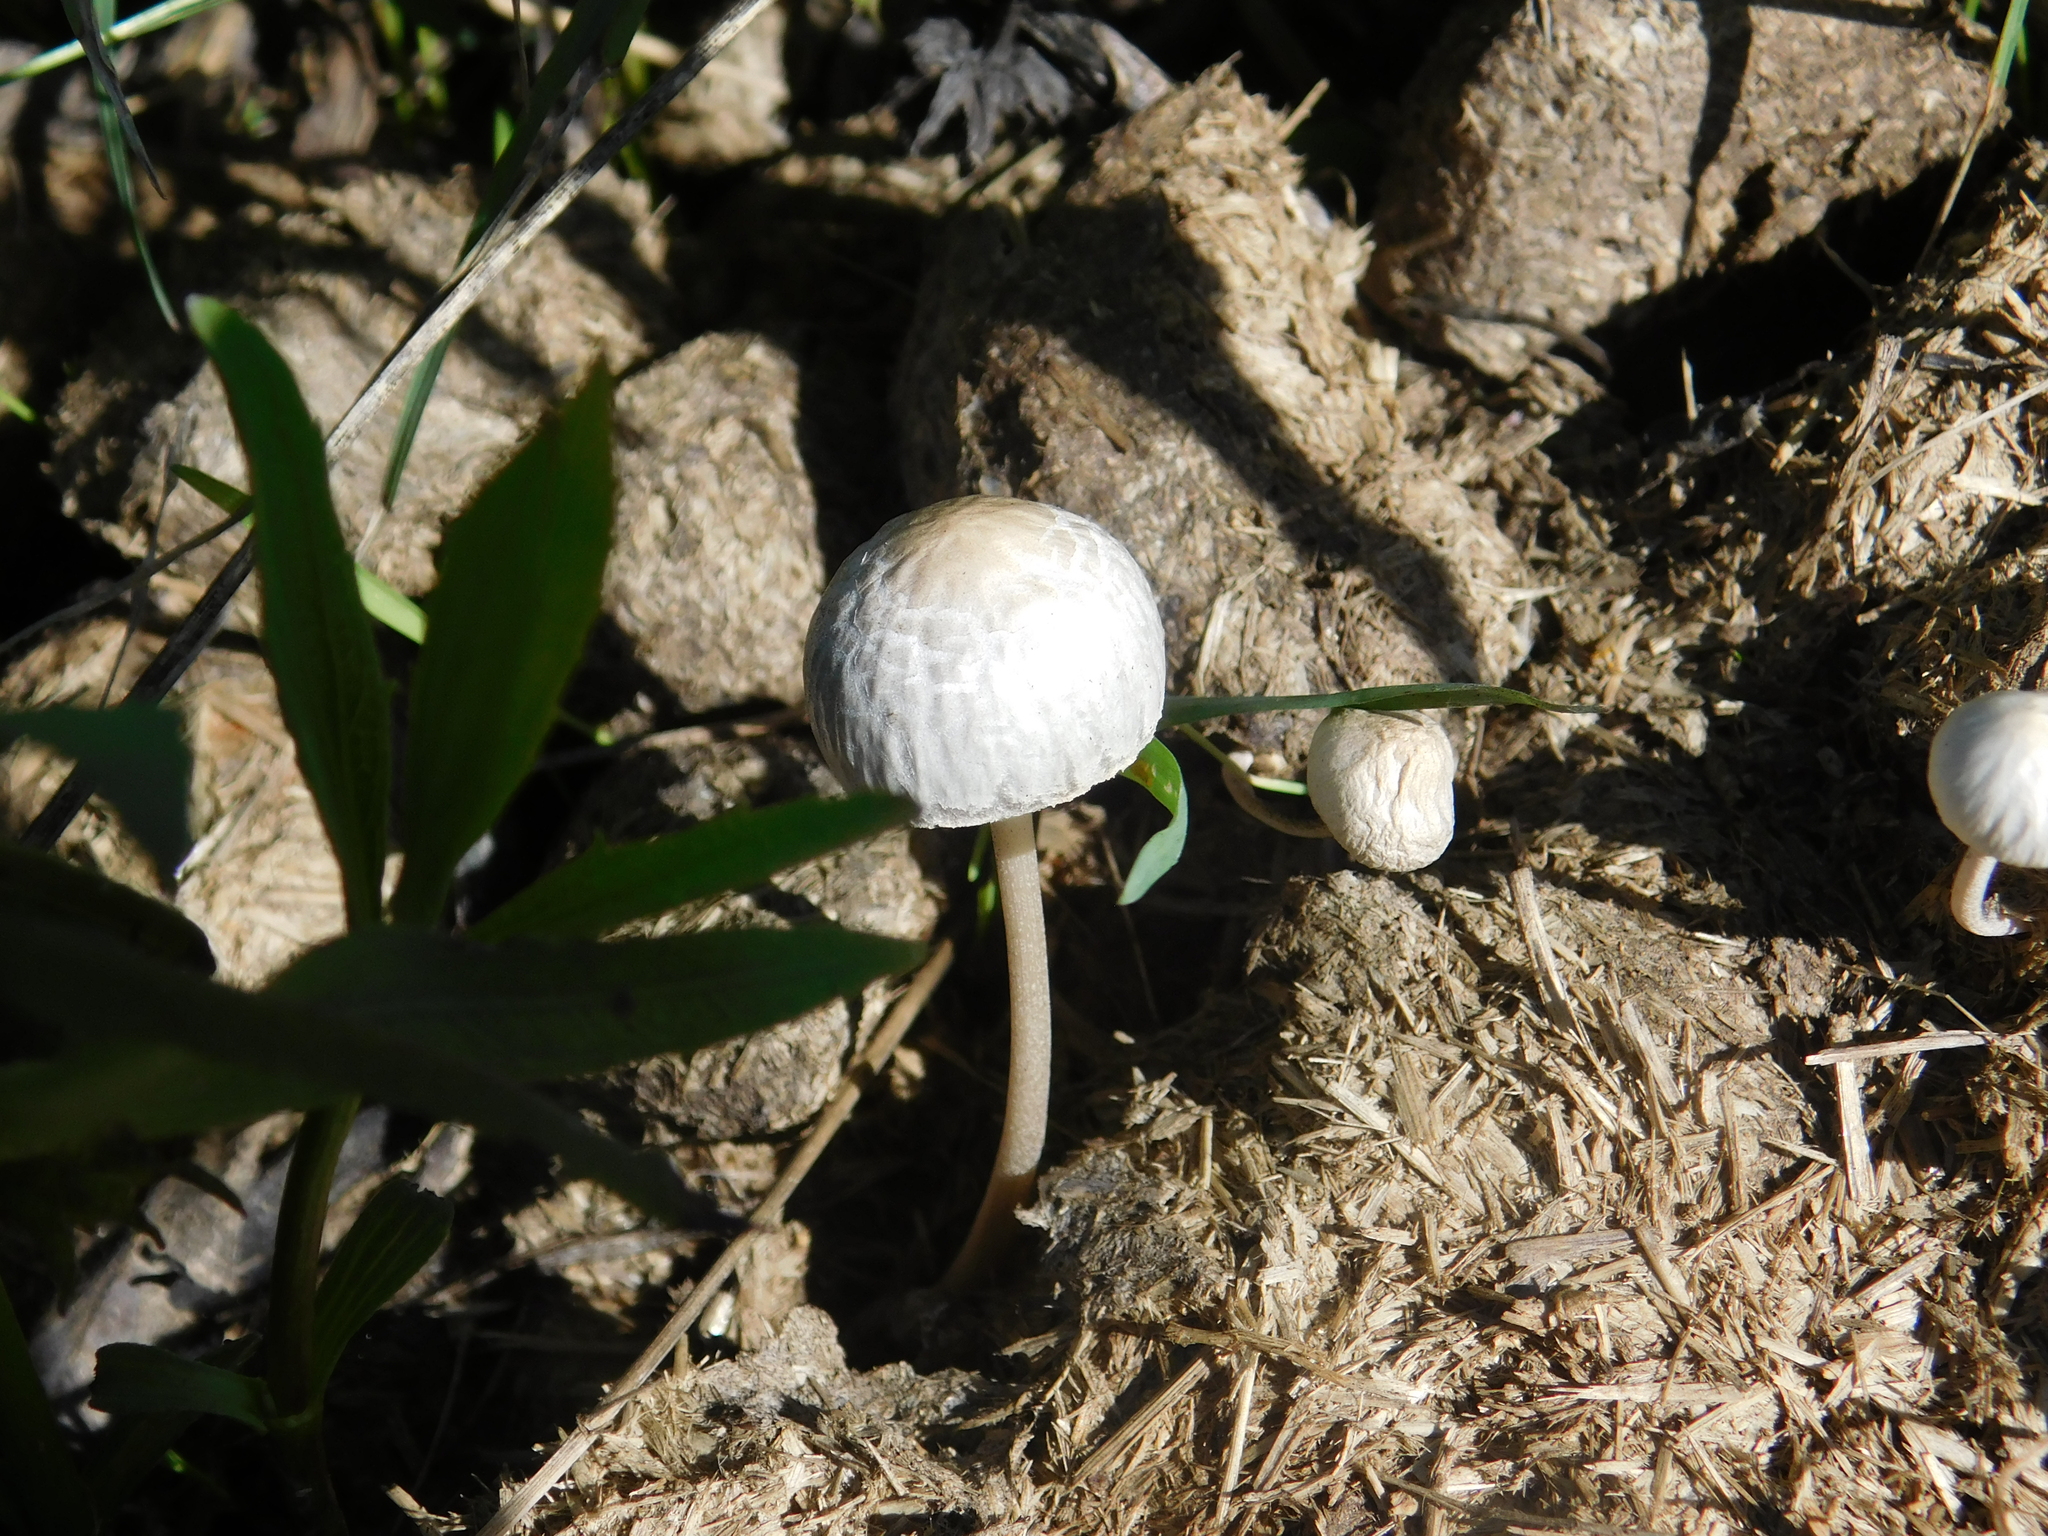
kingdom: Fungi
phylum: Basidiomycota
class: Agaricomycetes
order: Agaricales
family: Bolbitiaceae
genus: Panaeolus
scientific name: Panaeolus antillarum
